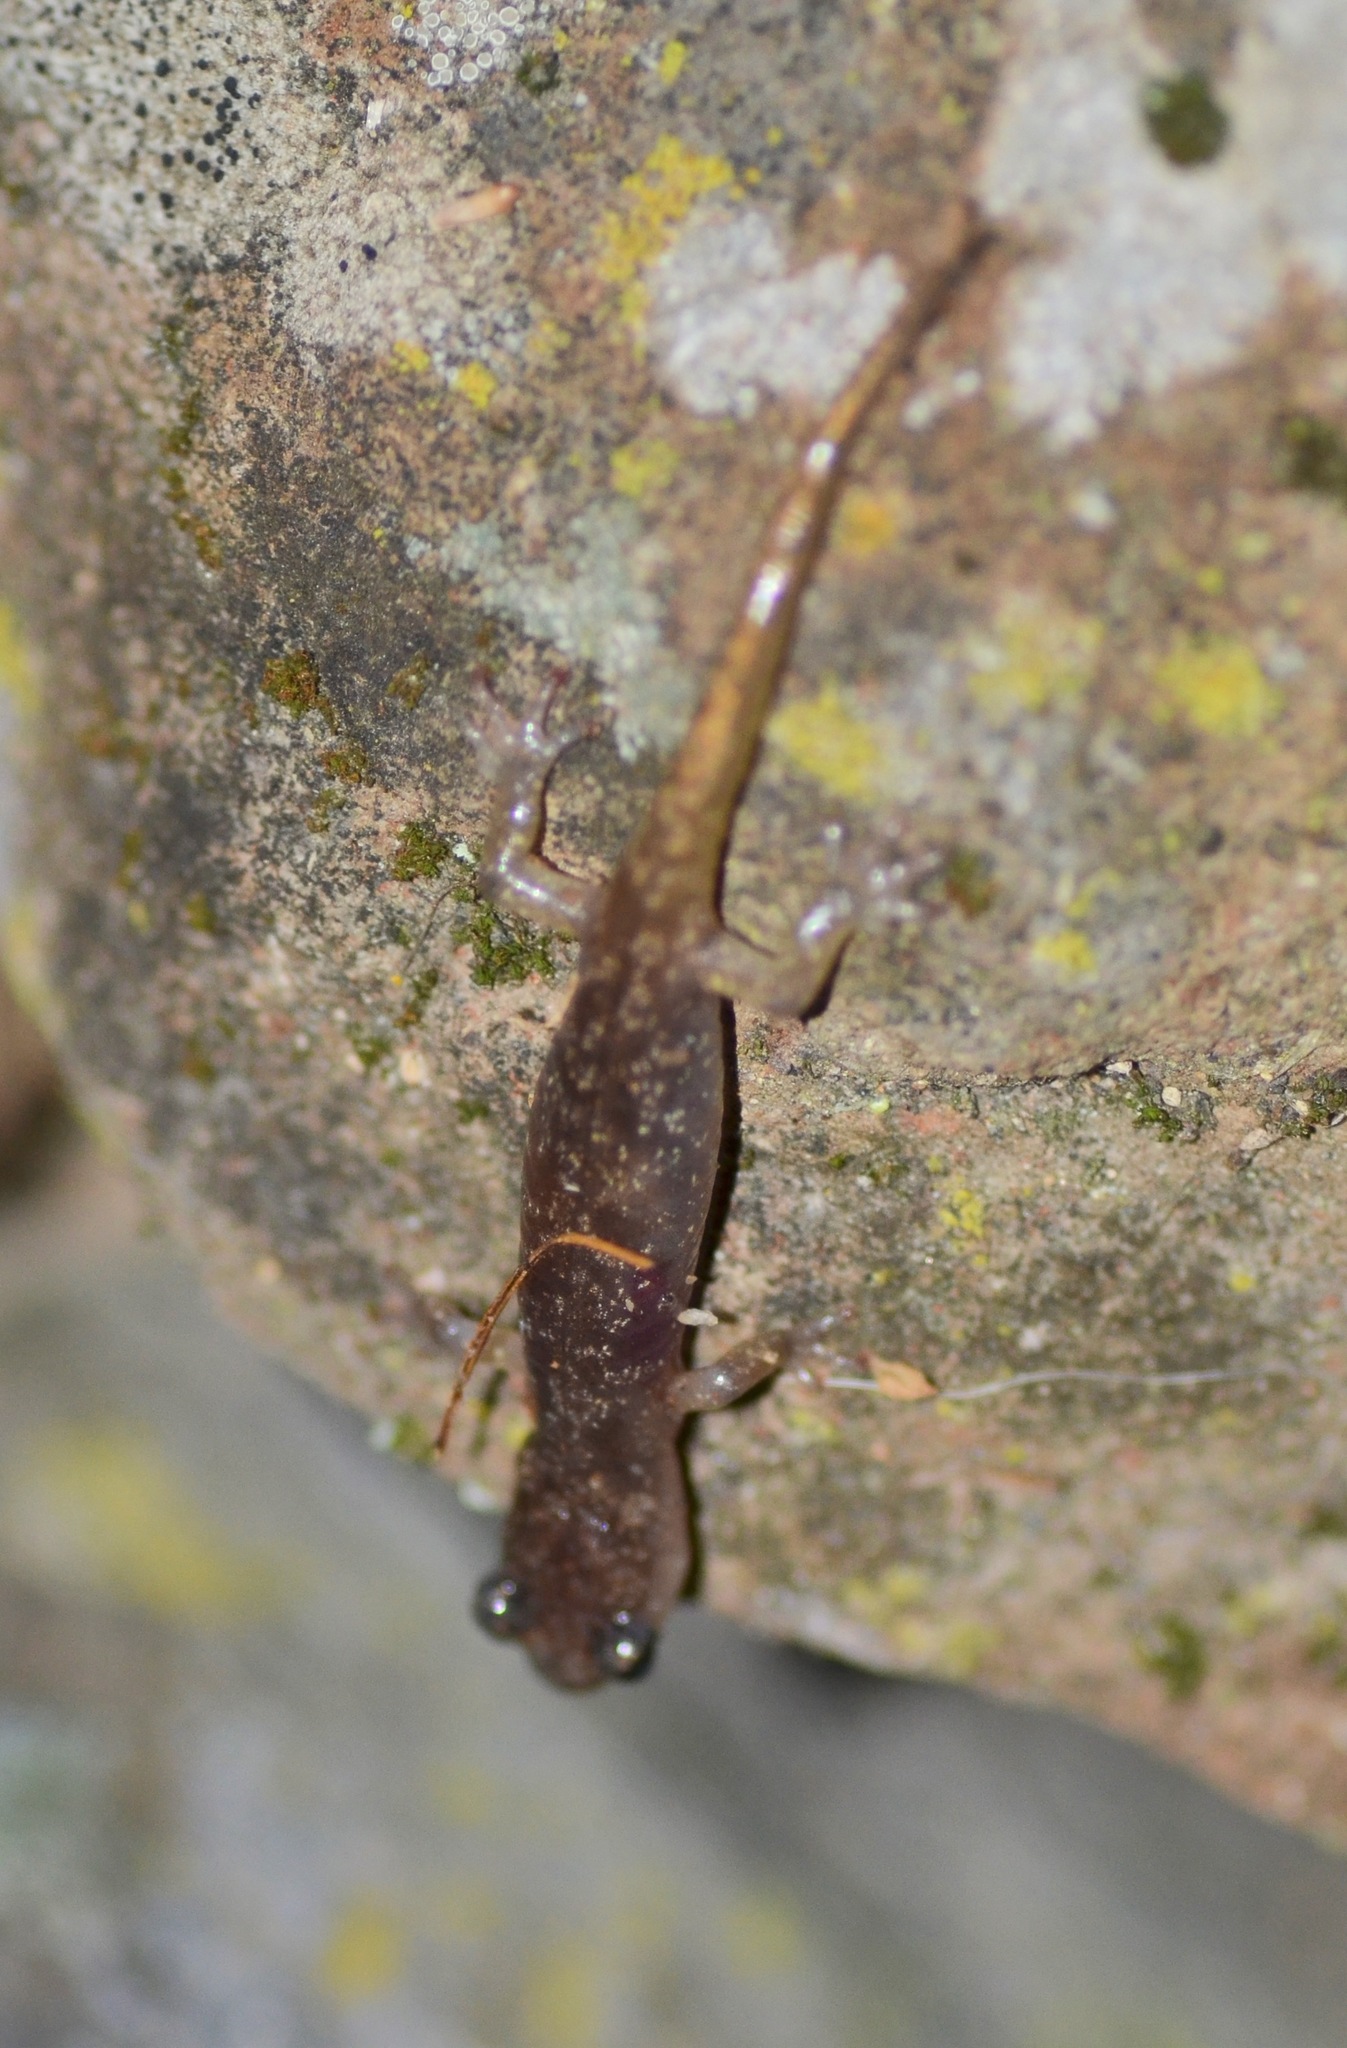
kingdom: Animalia
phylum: Chordata
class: Amphibia
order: Caudata
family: Plethodontidae
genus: Aneides
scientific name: Aneides lugubris
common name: Arboreal salamander
